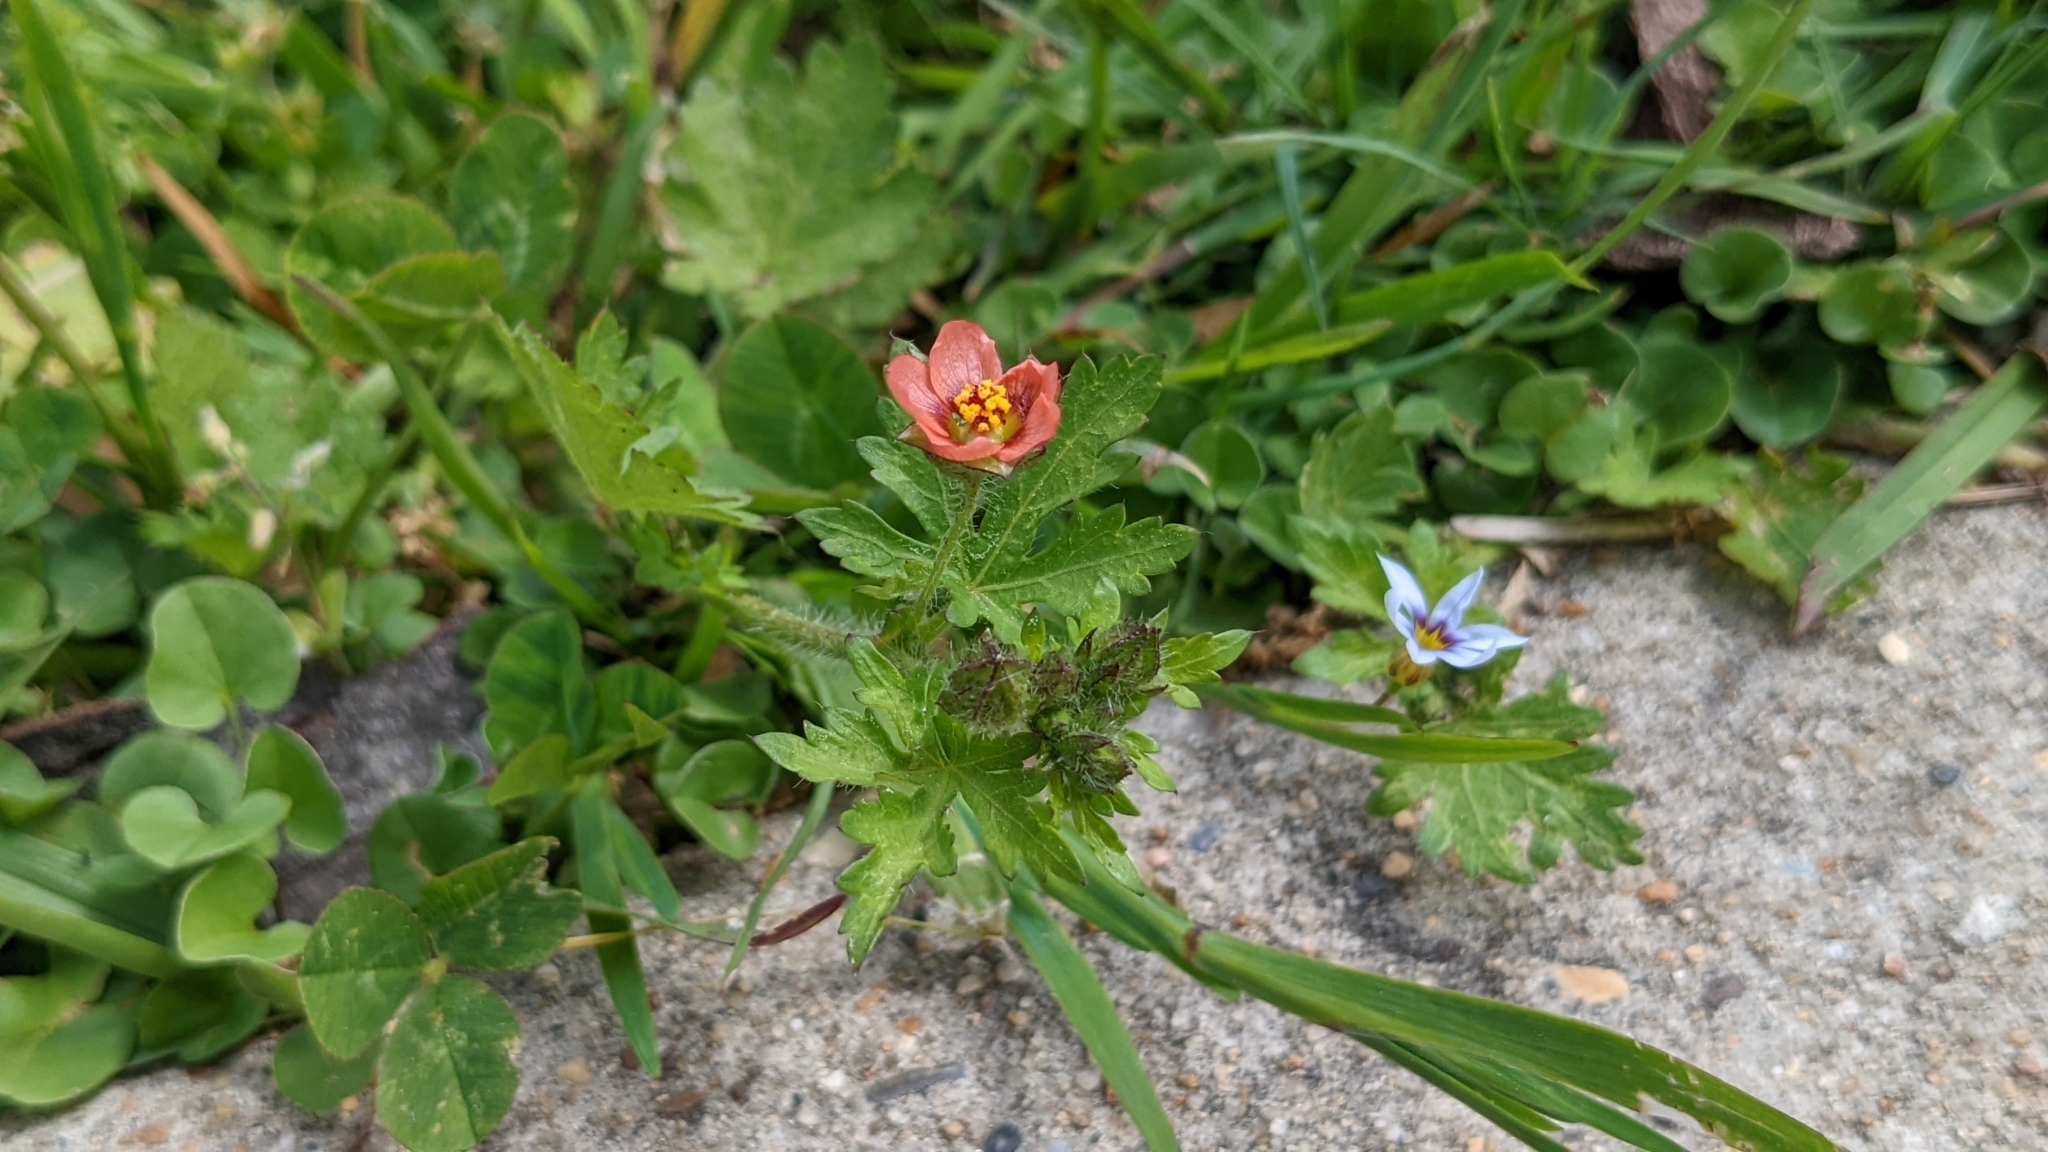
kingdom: Plantae
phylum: Tracheophyta
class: Magnoliopsida
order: Malvales
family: Malvaceae
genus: Modiola
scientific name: Modiola caroliniana
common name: Carolina bristlemallow
